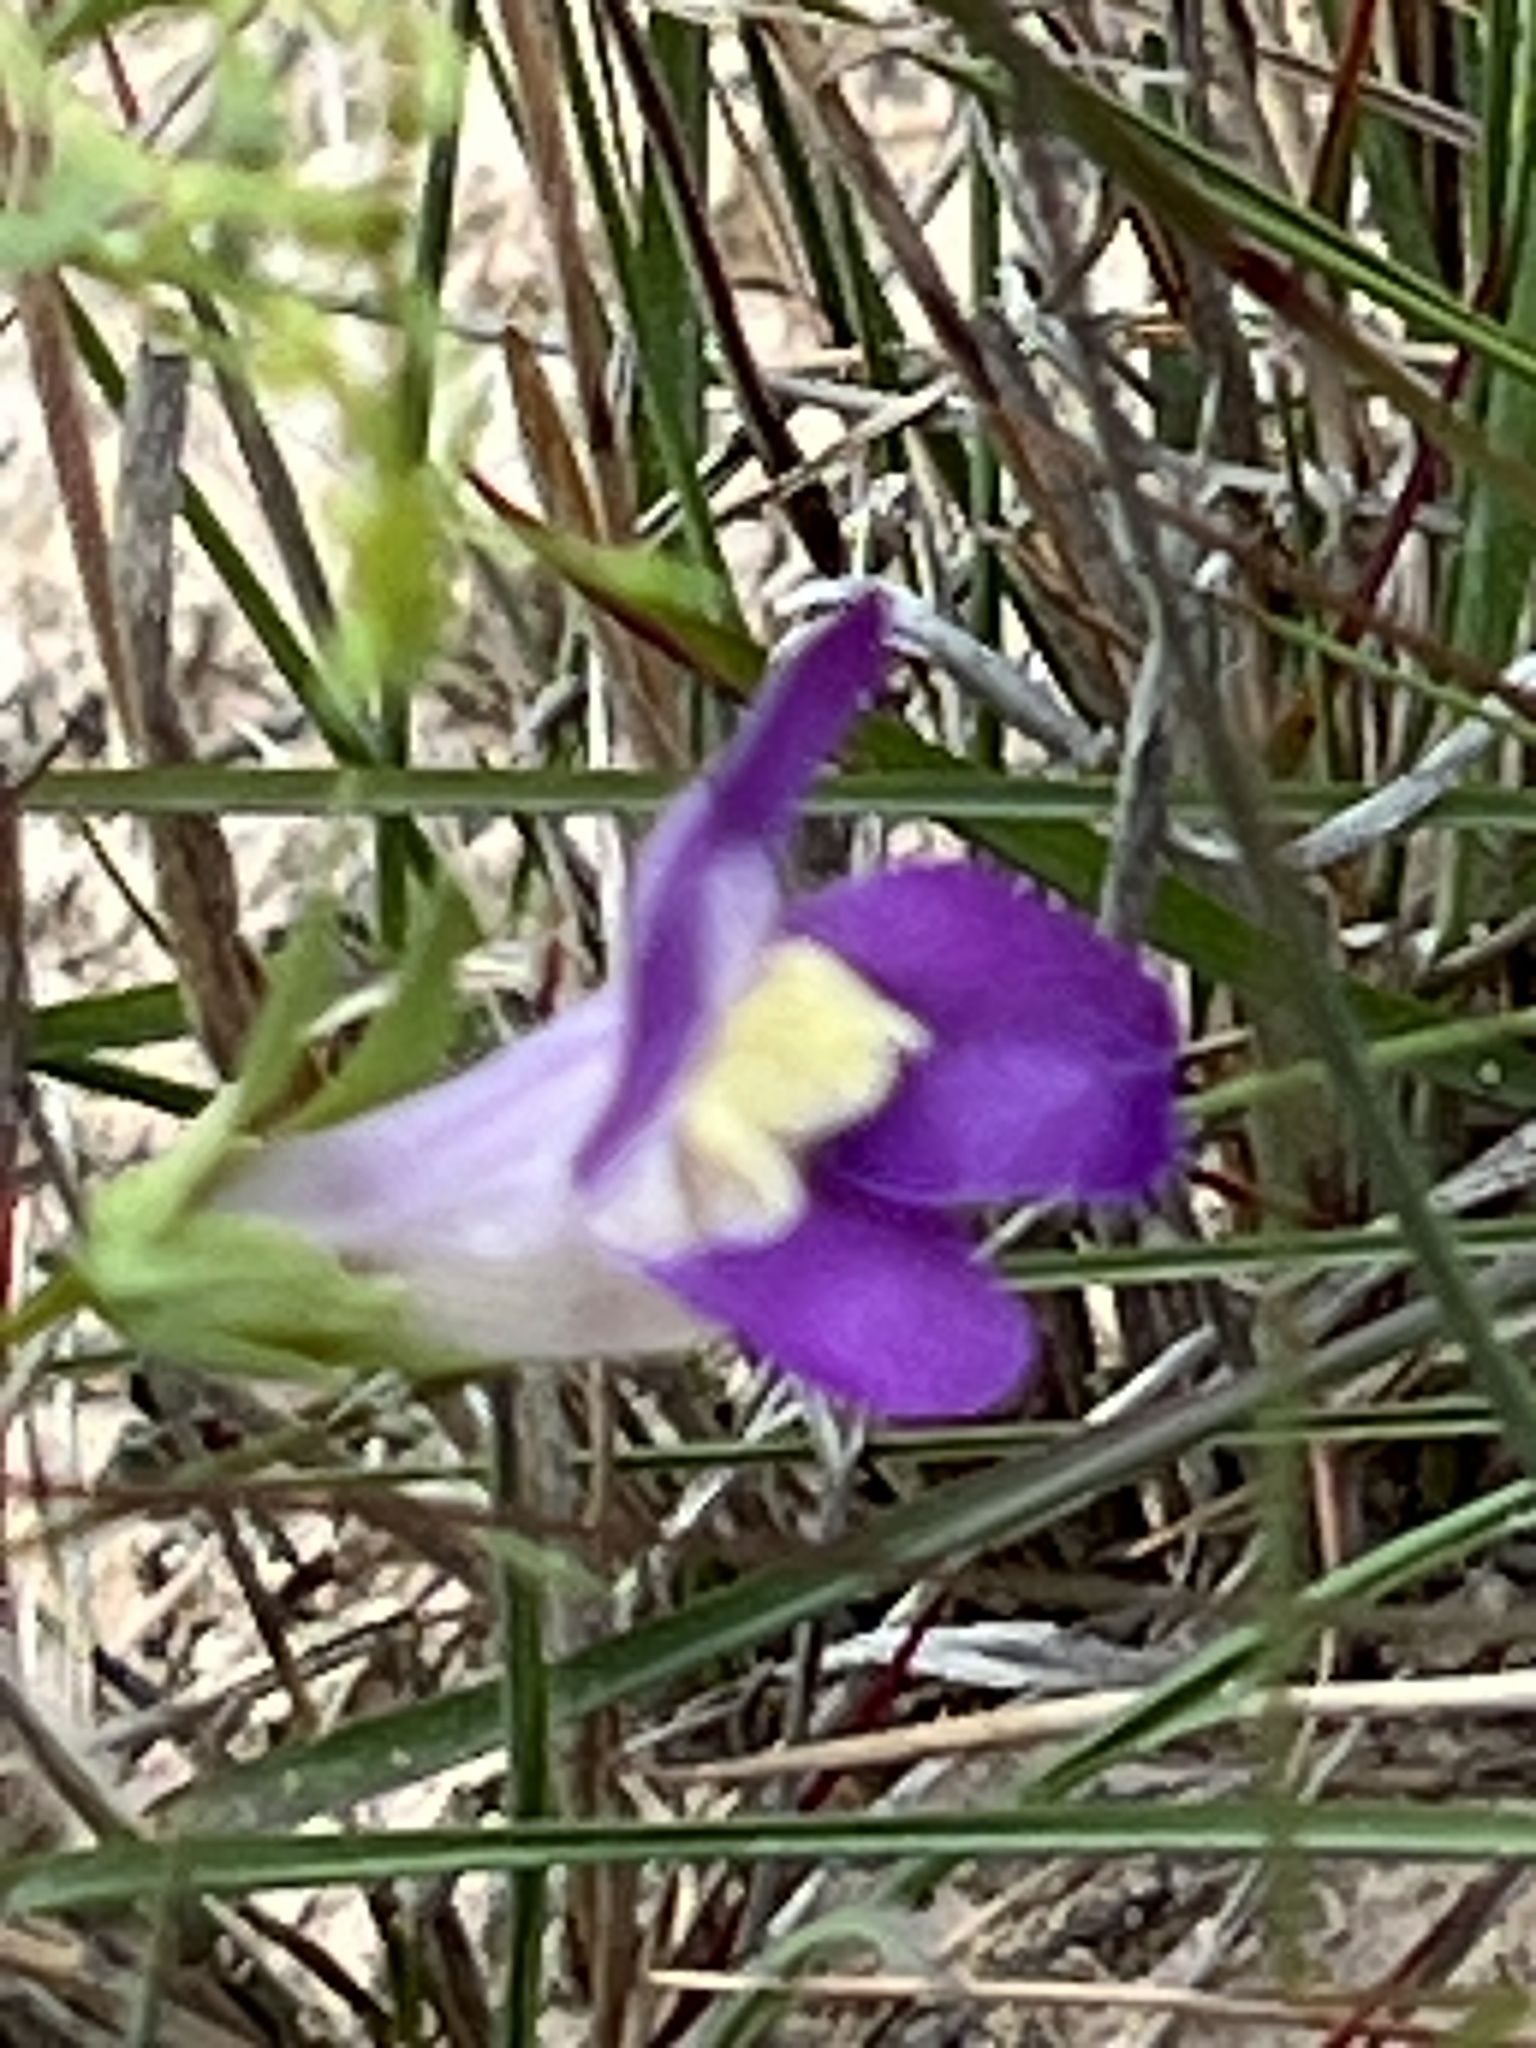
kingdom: Plantae
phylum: Tracheophyta
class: Magnoliopsida
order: Lamiales
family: Plantaginaceae
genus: Maurandella
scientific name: Maurandella antirrhiniflora
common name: Violet twining-snapdragon
